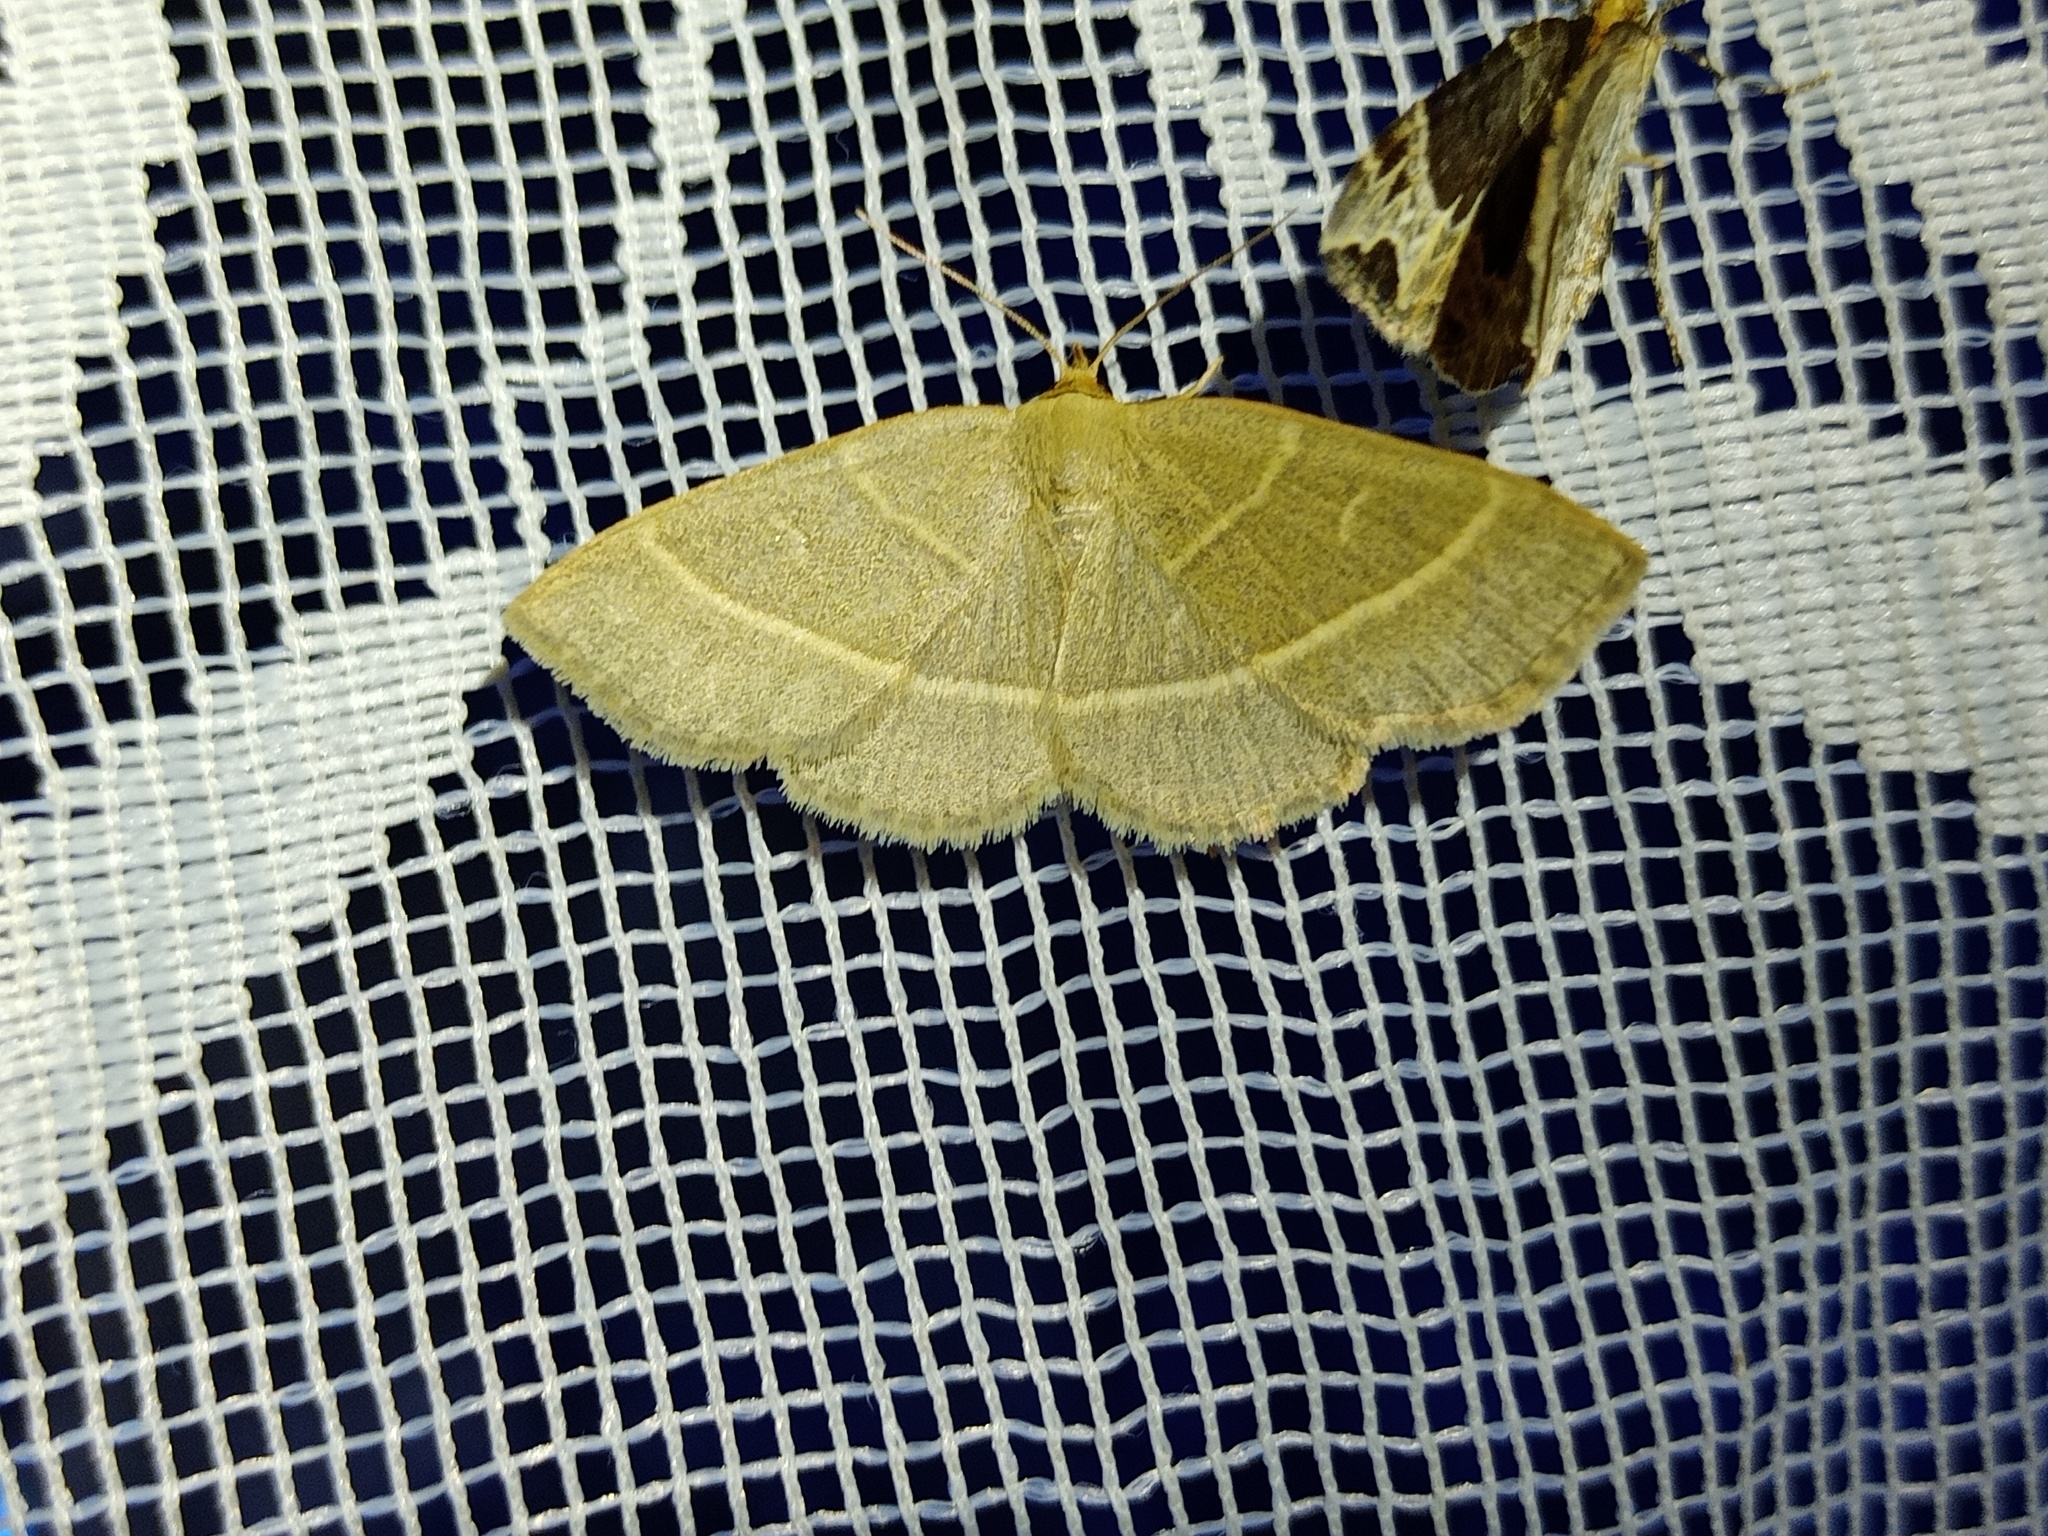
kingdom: Animalia
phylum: Arthropoda
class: Insecta
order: Lepidoptera
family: Erebidae
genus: Trisateles
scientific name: Trisateles emortualis
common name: Olive crescent
